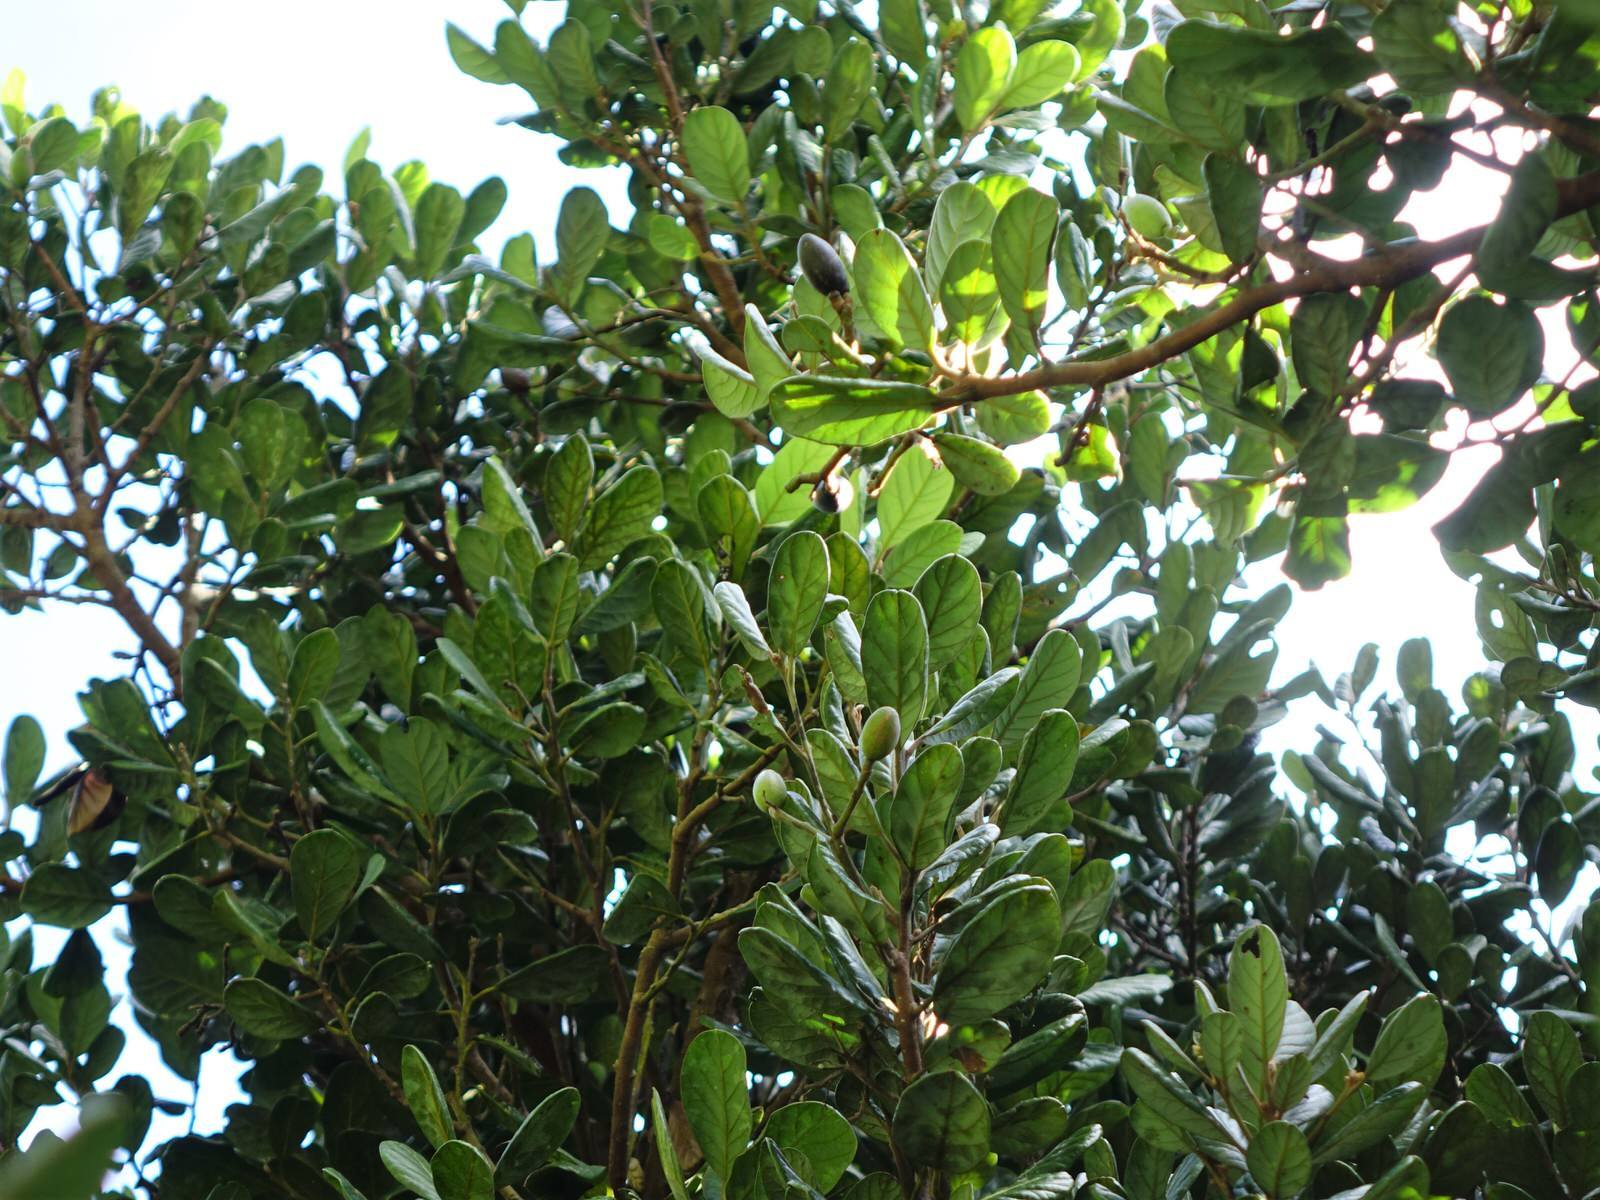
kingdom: Plantae
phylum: Tracheophyta
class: Magnoliopsida
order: Laurales
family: Lauraceae
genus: Beilschmiedia
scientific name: Beilschmiedia tarairi
